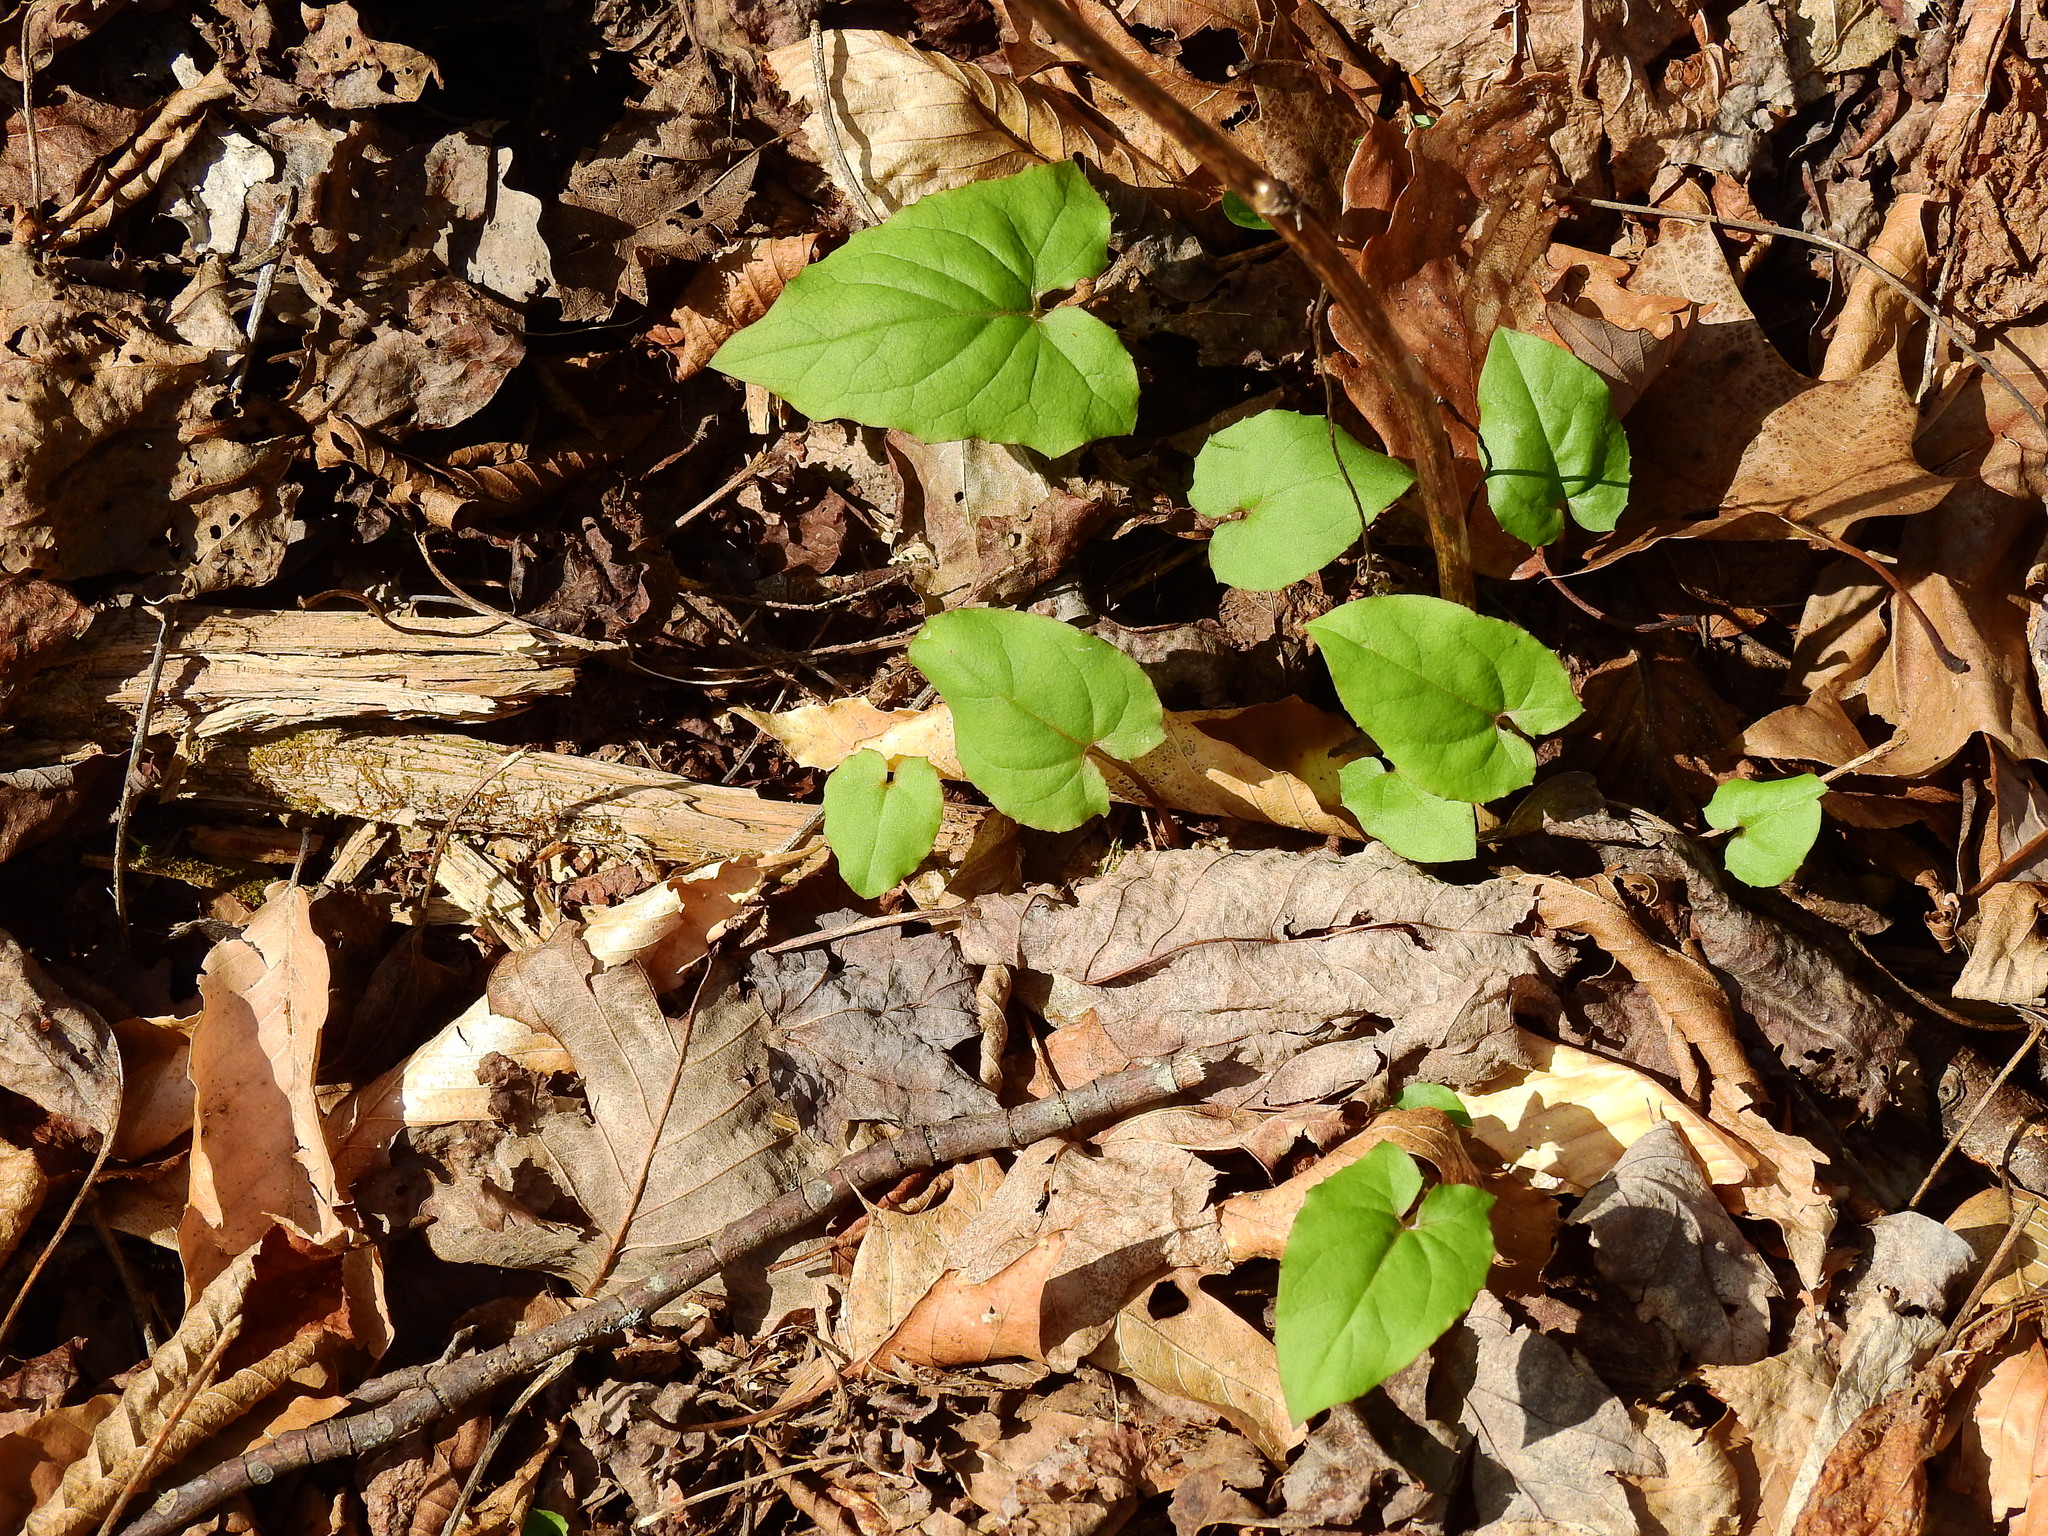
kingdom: Plantae
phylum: Tracheophyta
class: Magnoliopsida
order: Asterales
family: Asteraceae
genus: Nabalus
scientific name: Nabalus altissima
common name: Tall rattlesnakeroot
